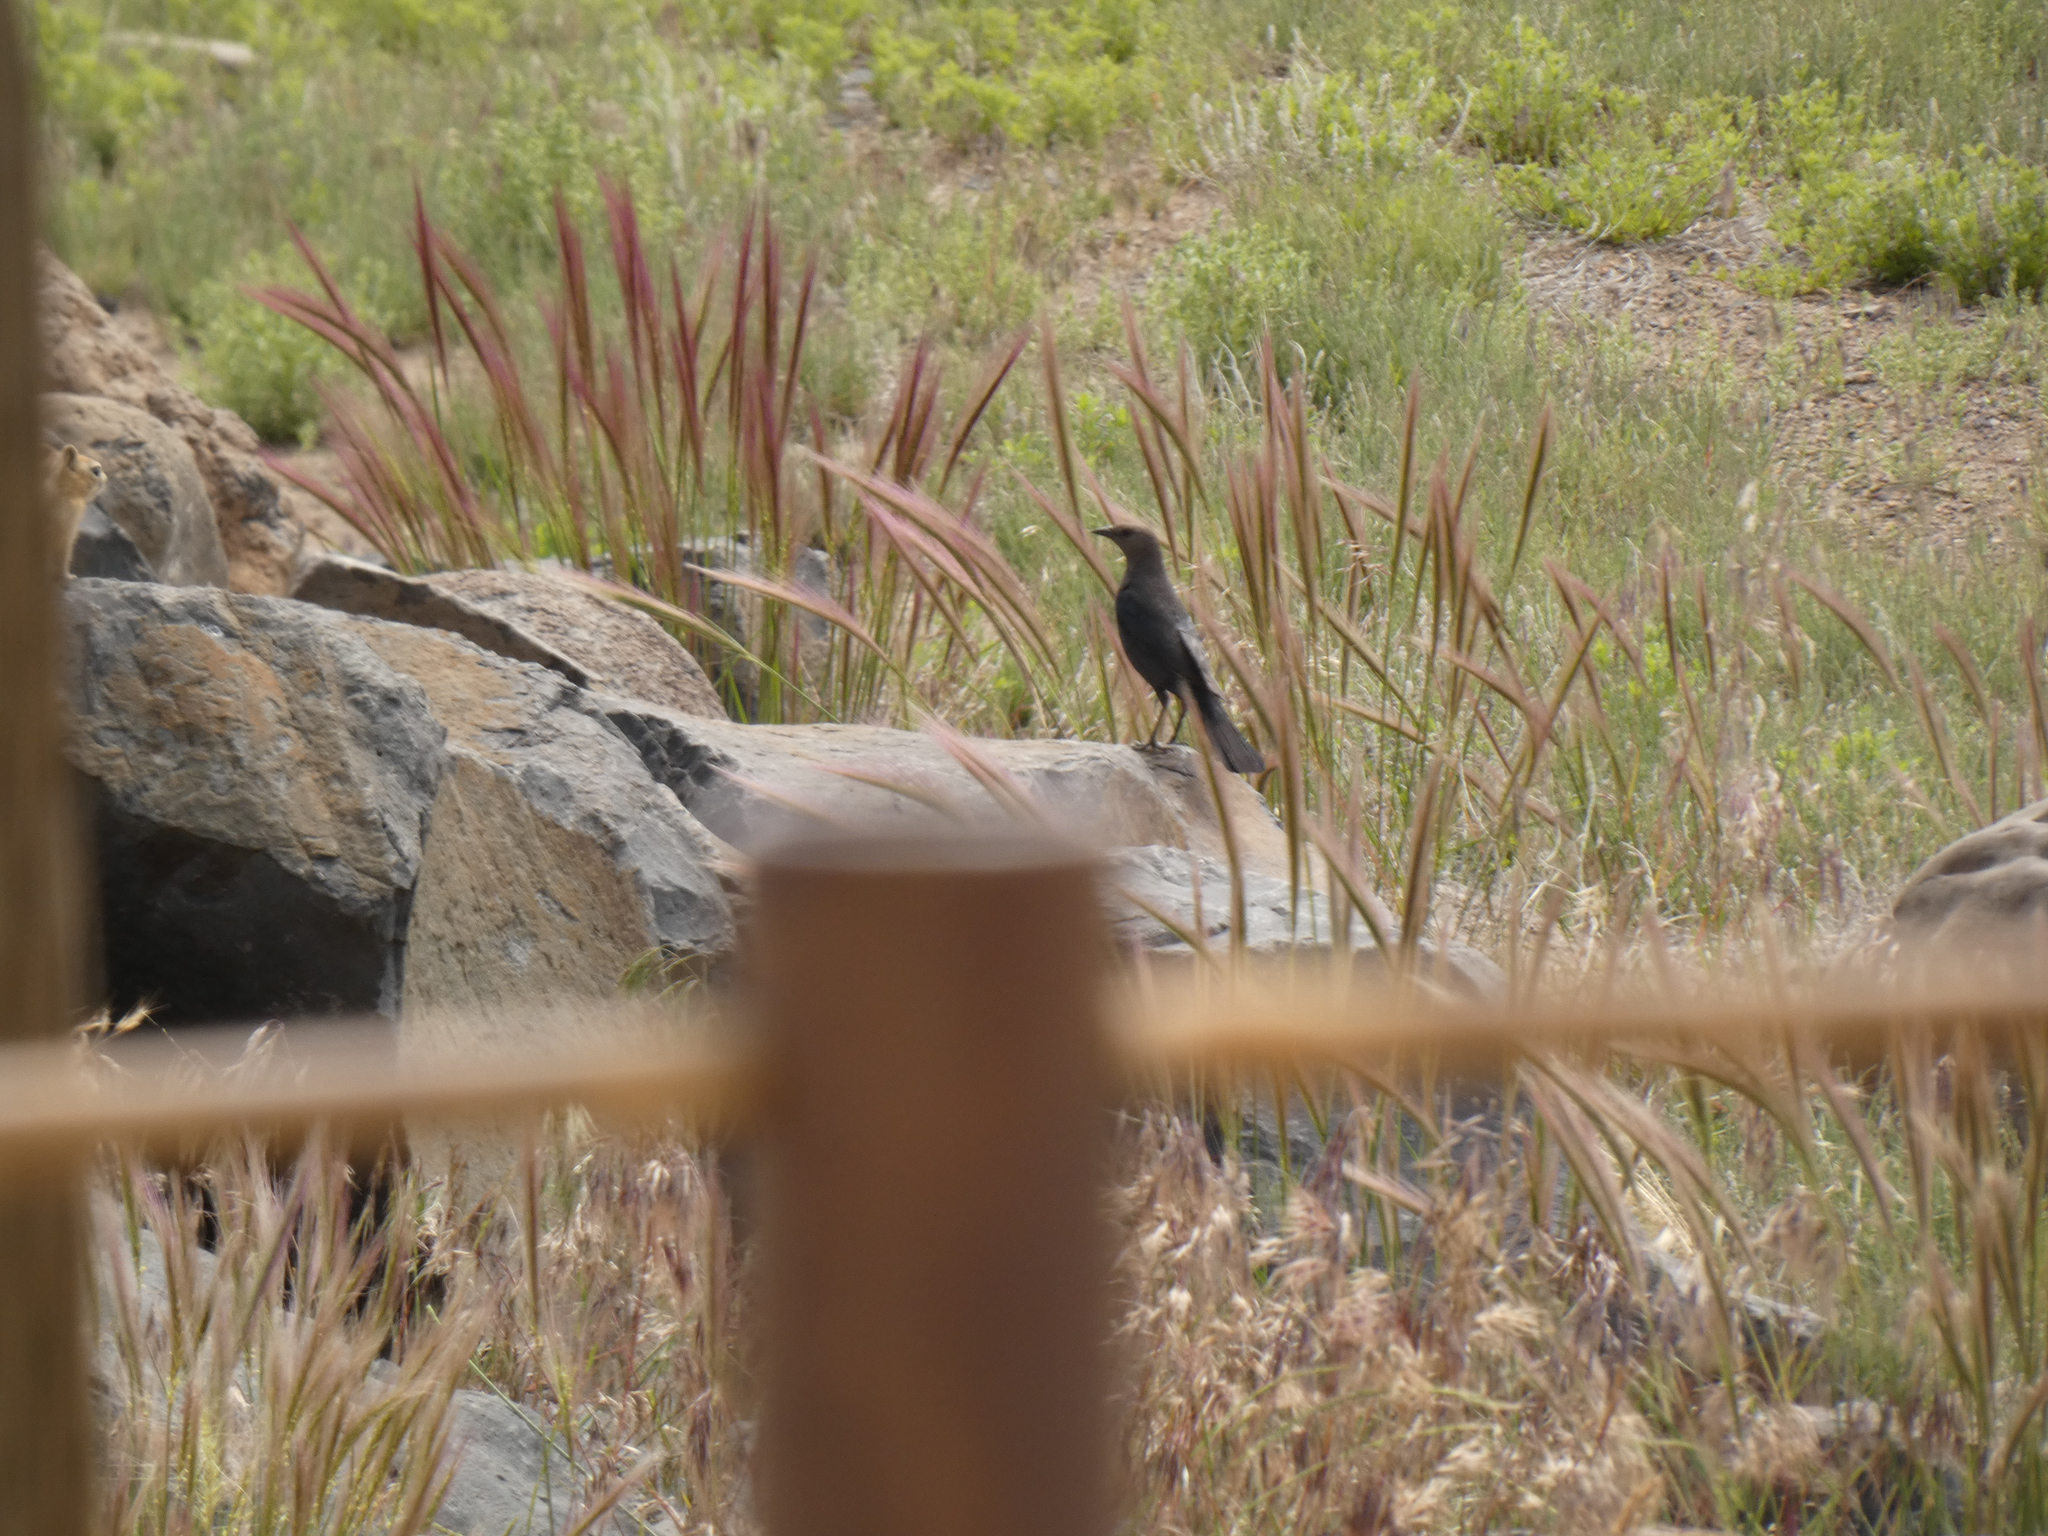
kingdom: Animalia
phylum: Chordata
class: Aves
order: Passeriformes
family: Icteridae
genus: Euphagus
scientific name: Euphagus cyanocephalus
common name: Brewer's blackbird
